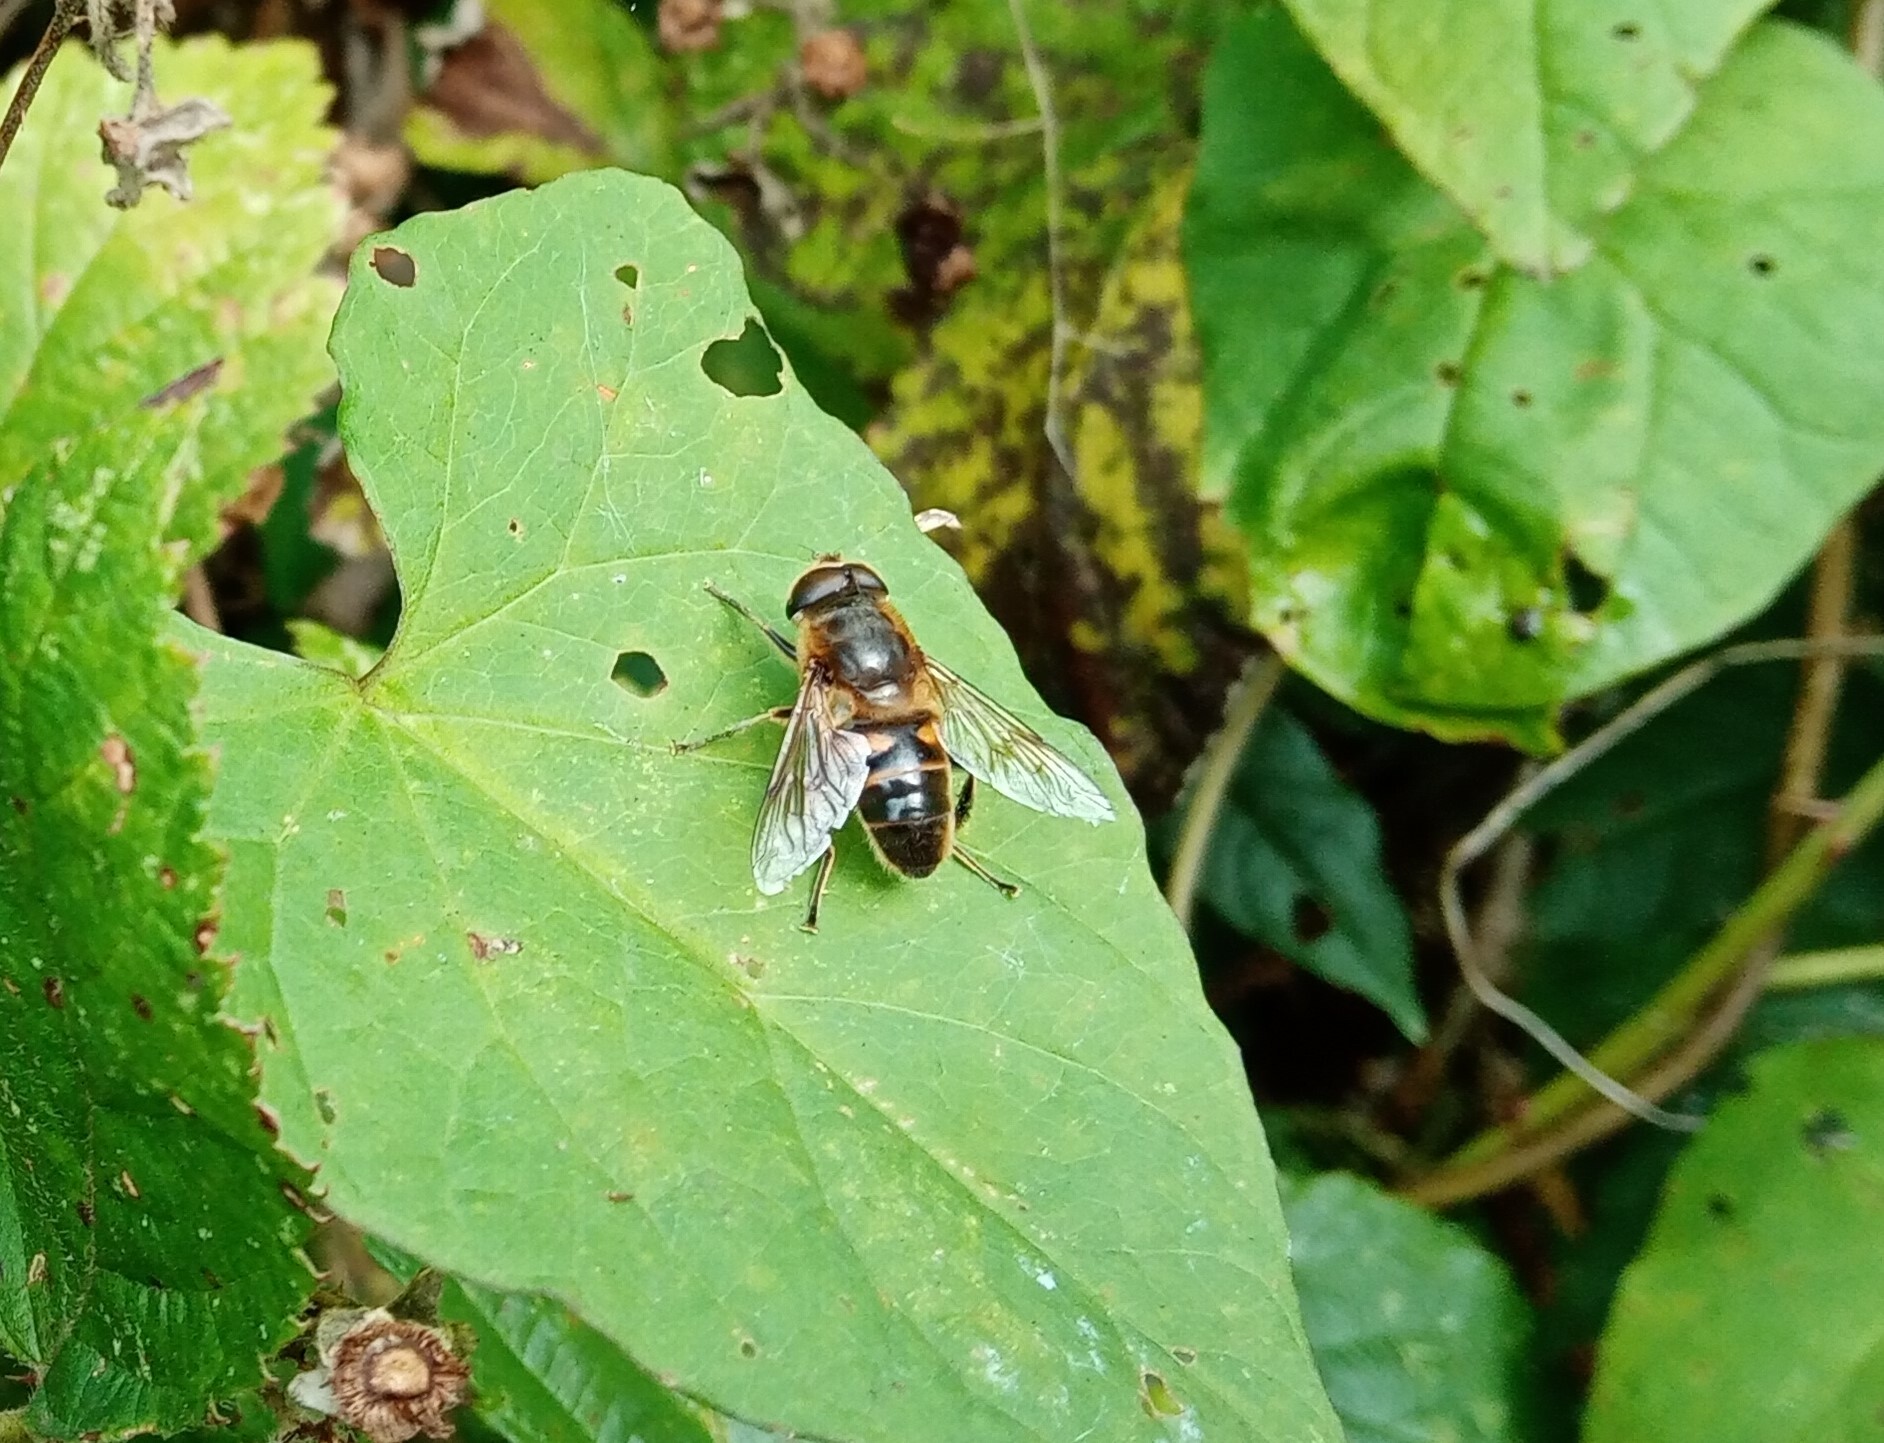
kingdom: Animalia
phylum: Arthropoda
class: Insecta
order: Diptera
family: Syrphidae
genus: Eristalis
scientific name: Eristalis tenax
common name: Drone fly
